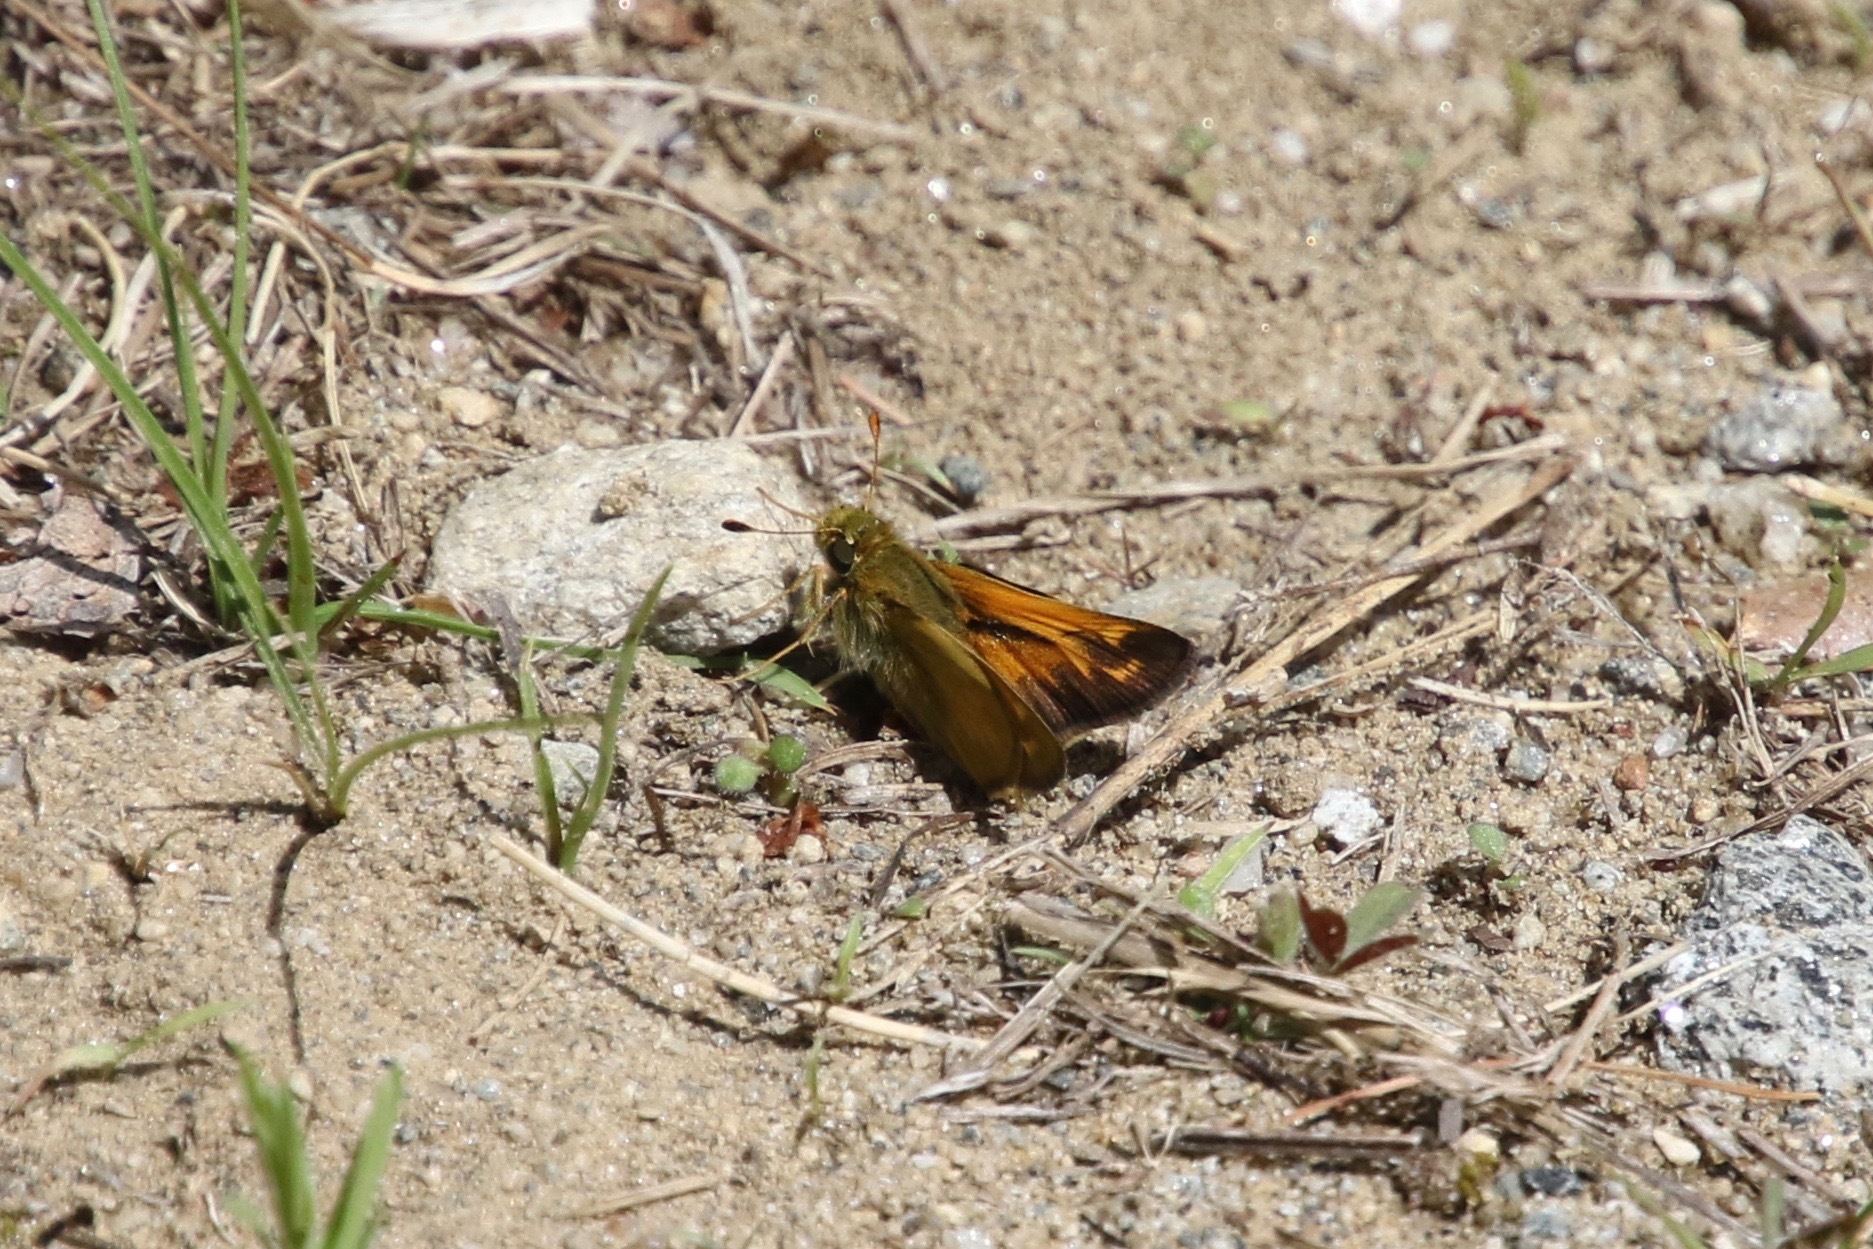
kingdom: Animalia
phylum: Arthropoda
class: Insecta
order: Lepidoptera
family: Hesperiidae
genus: Hesperia
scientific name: Hesperia sassacus
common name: Indian skipper
